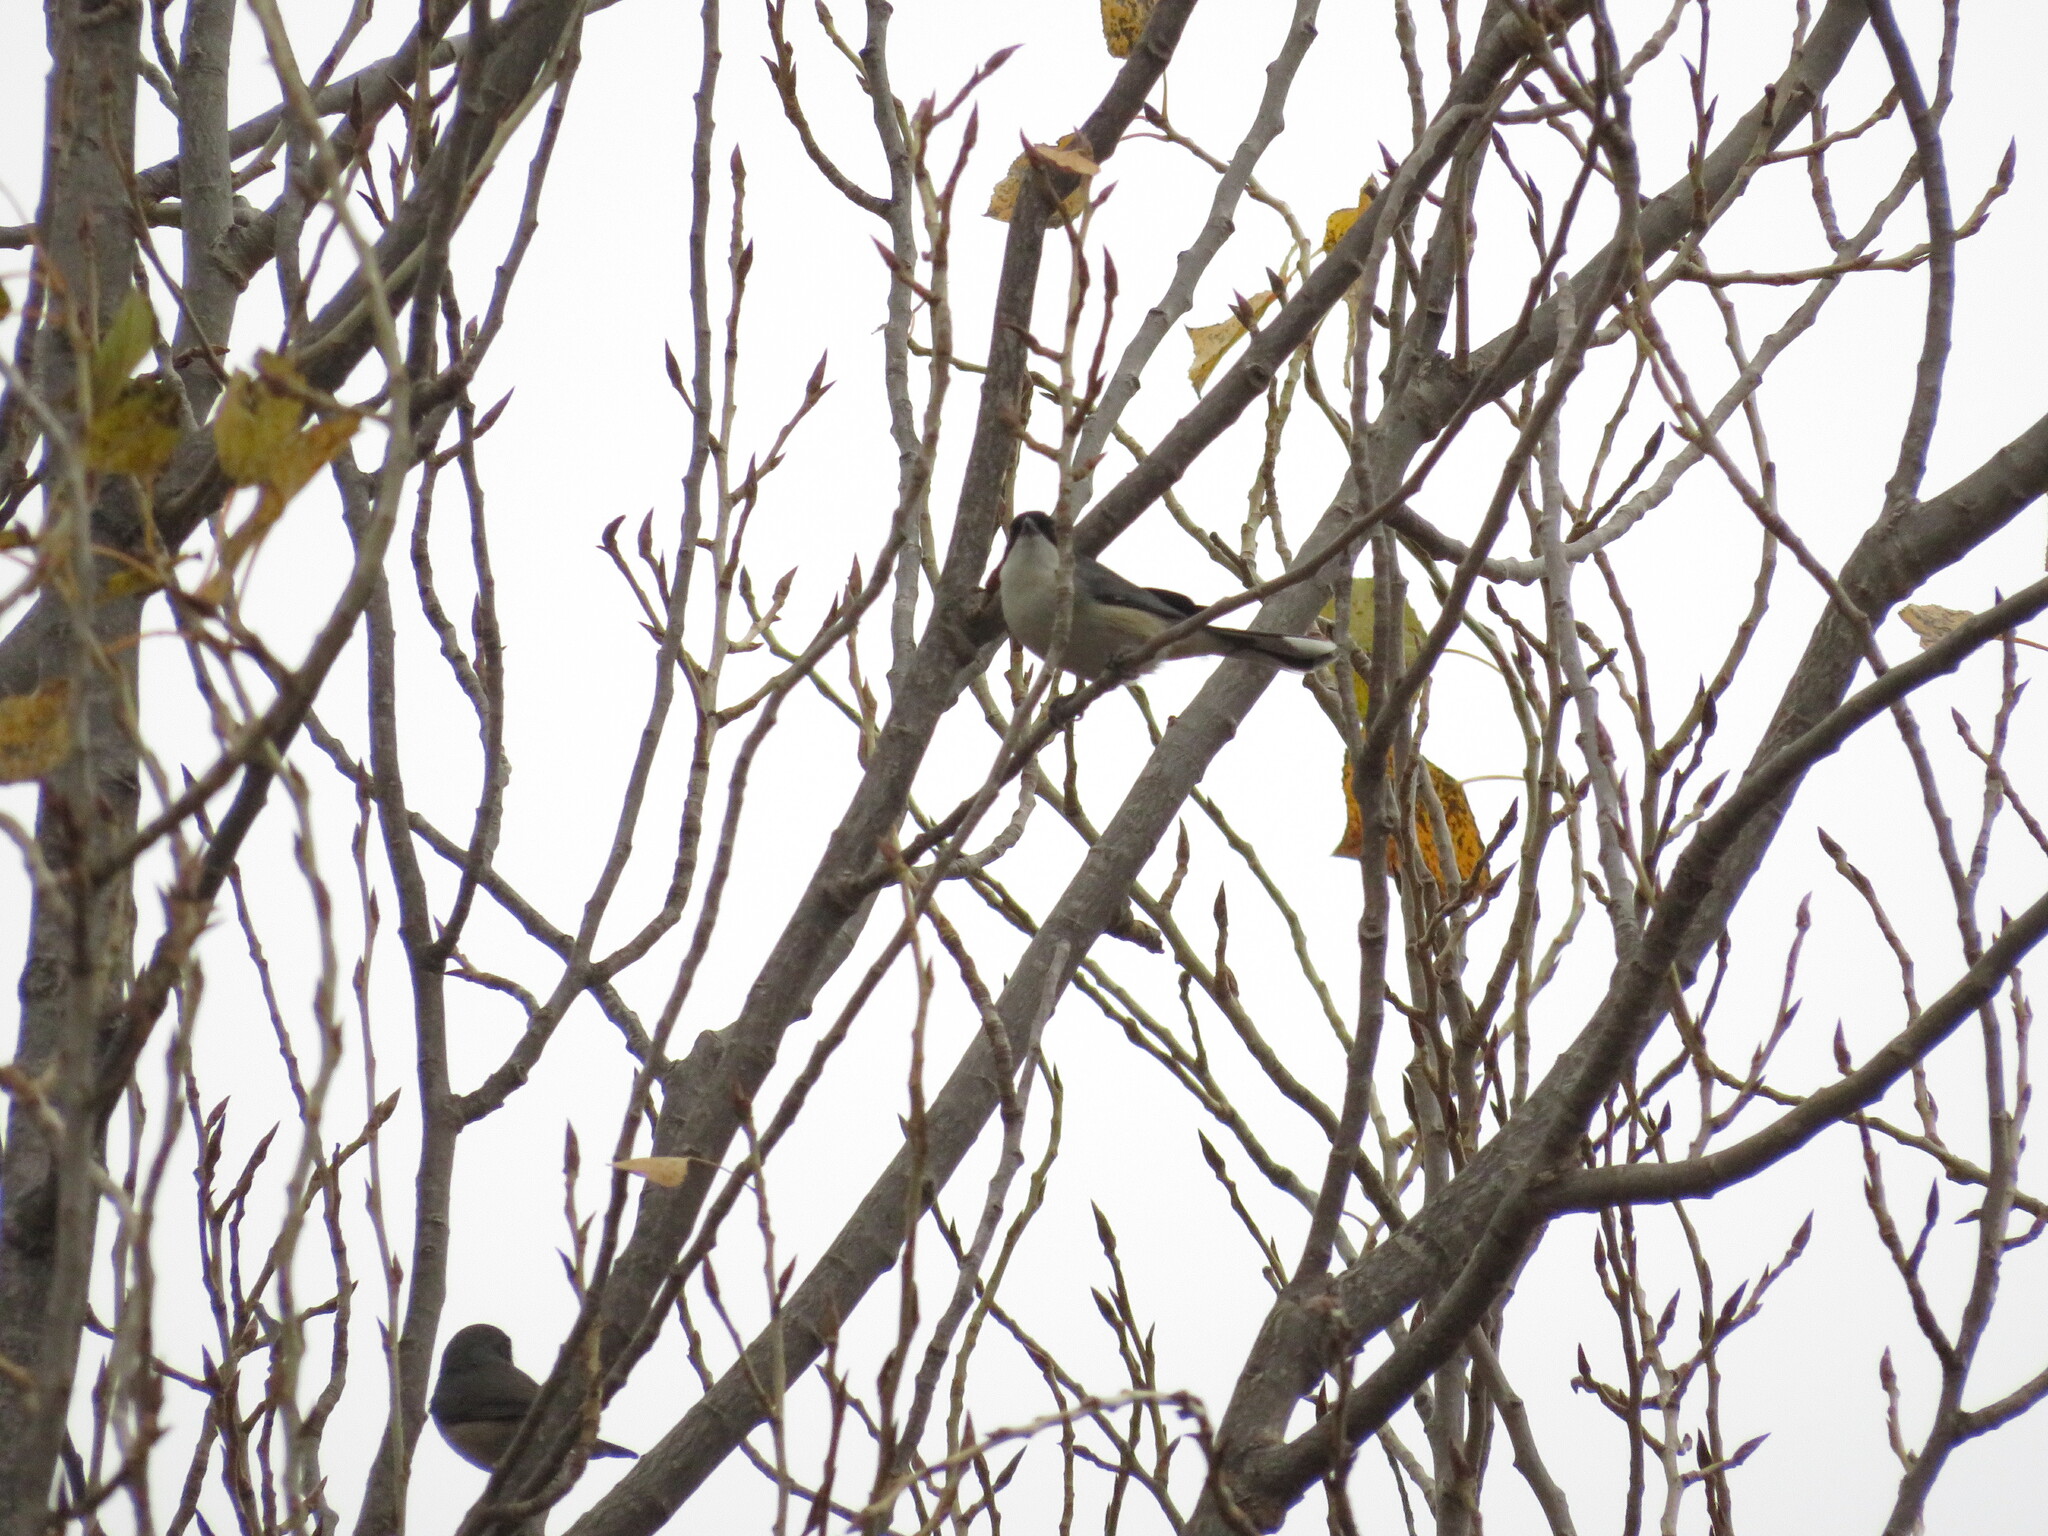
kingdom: Animalia
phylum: Chordata
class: Aves
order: Passeriformes
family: Thraupidae
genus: Microspingus
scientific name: Microspingus melanoleucus
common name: Black-capped warbling-finch
